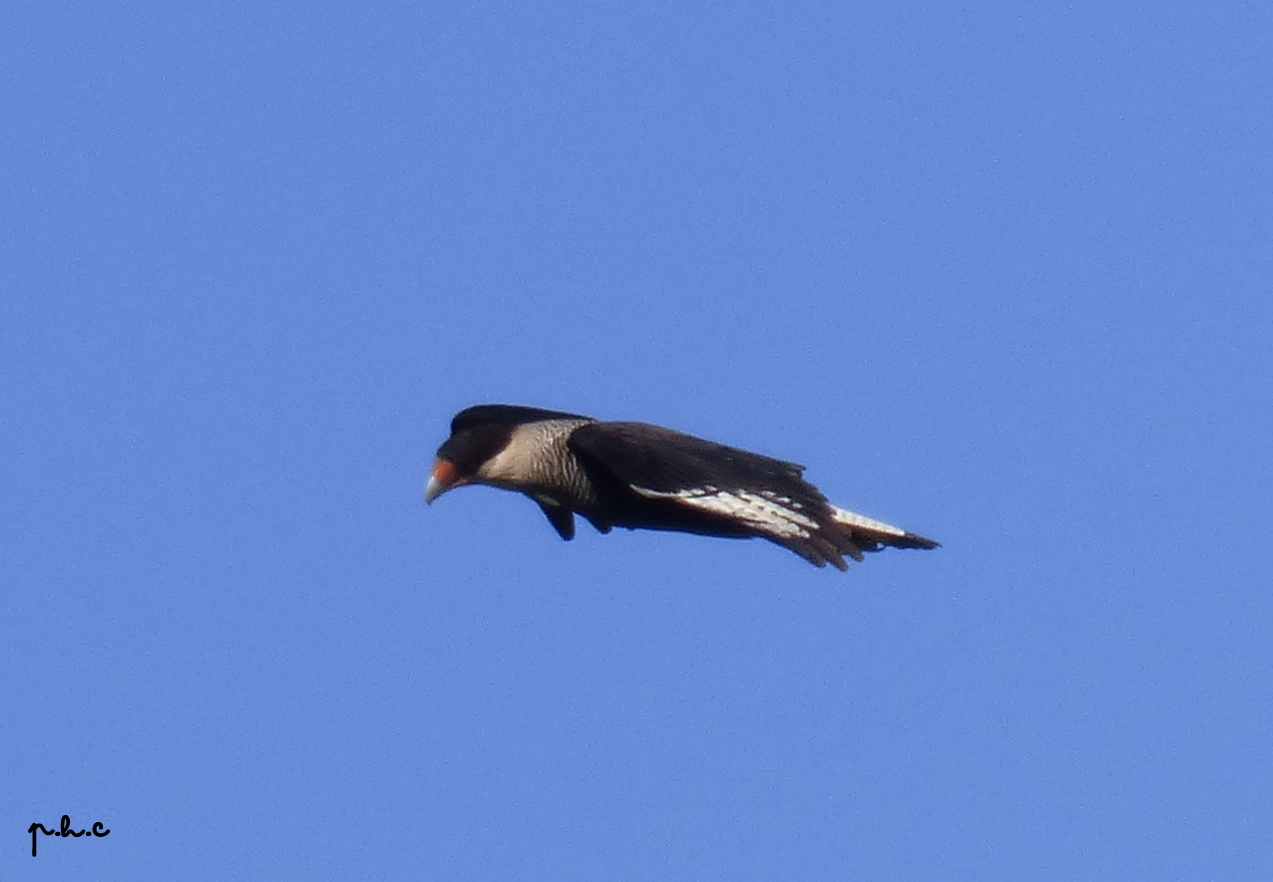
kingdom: Animalia
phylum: Chordata
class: Aves
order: Falconiformes
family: Falconidae
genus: Caracara
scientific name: Caracara plancus
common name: Southern caracara
